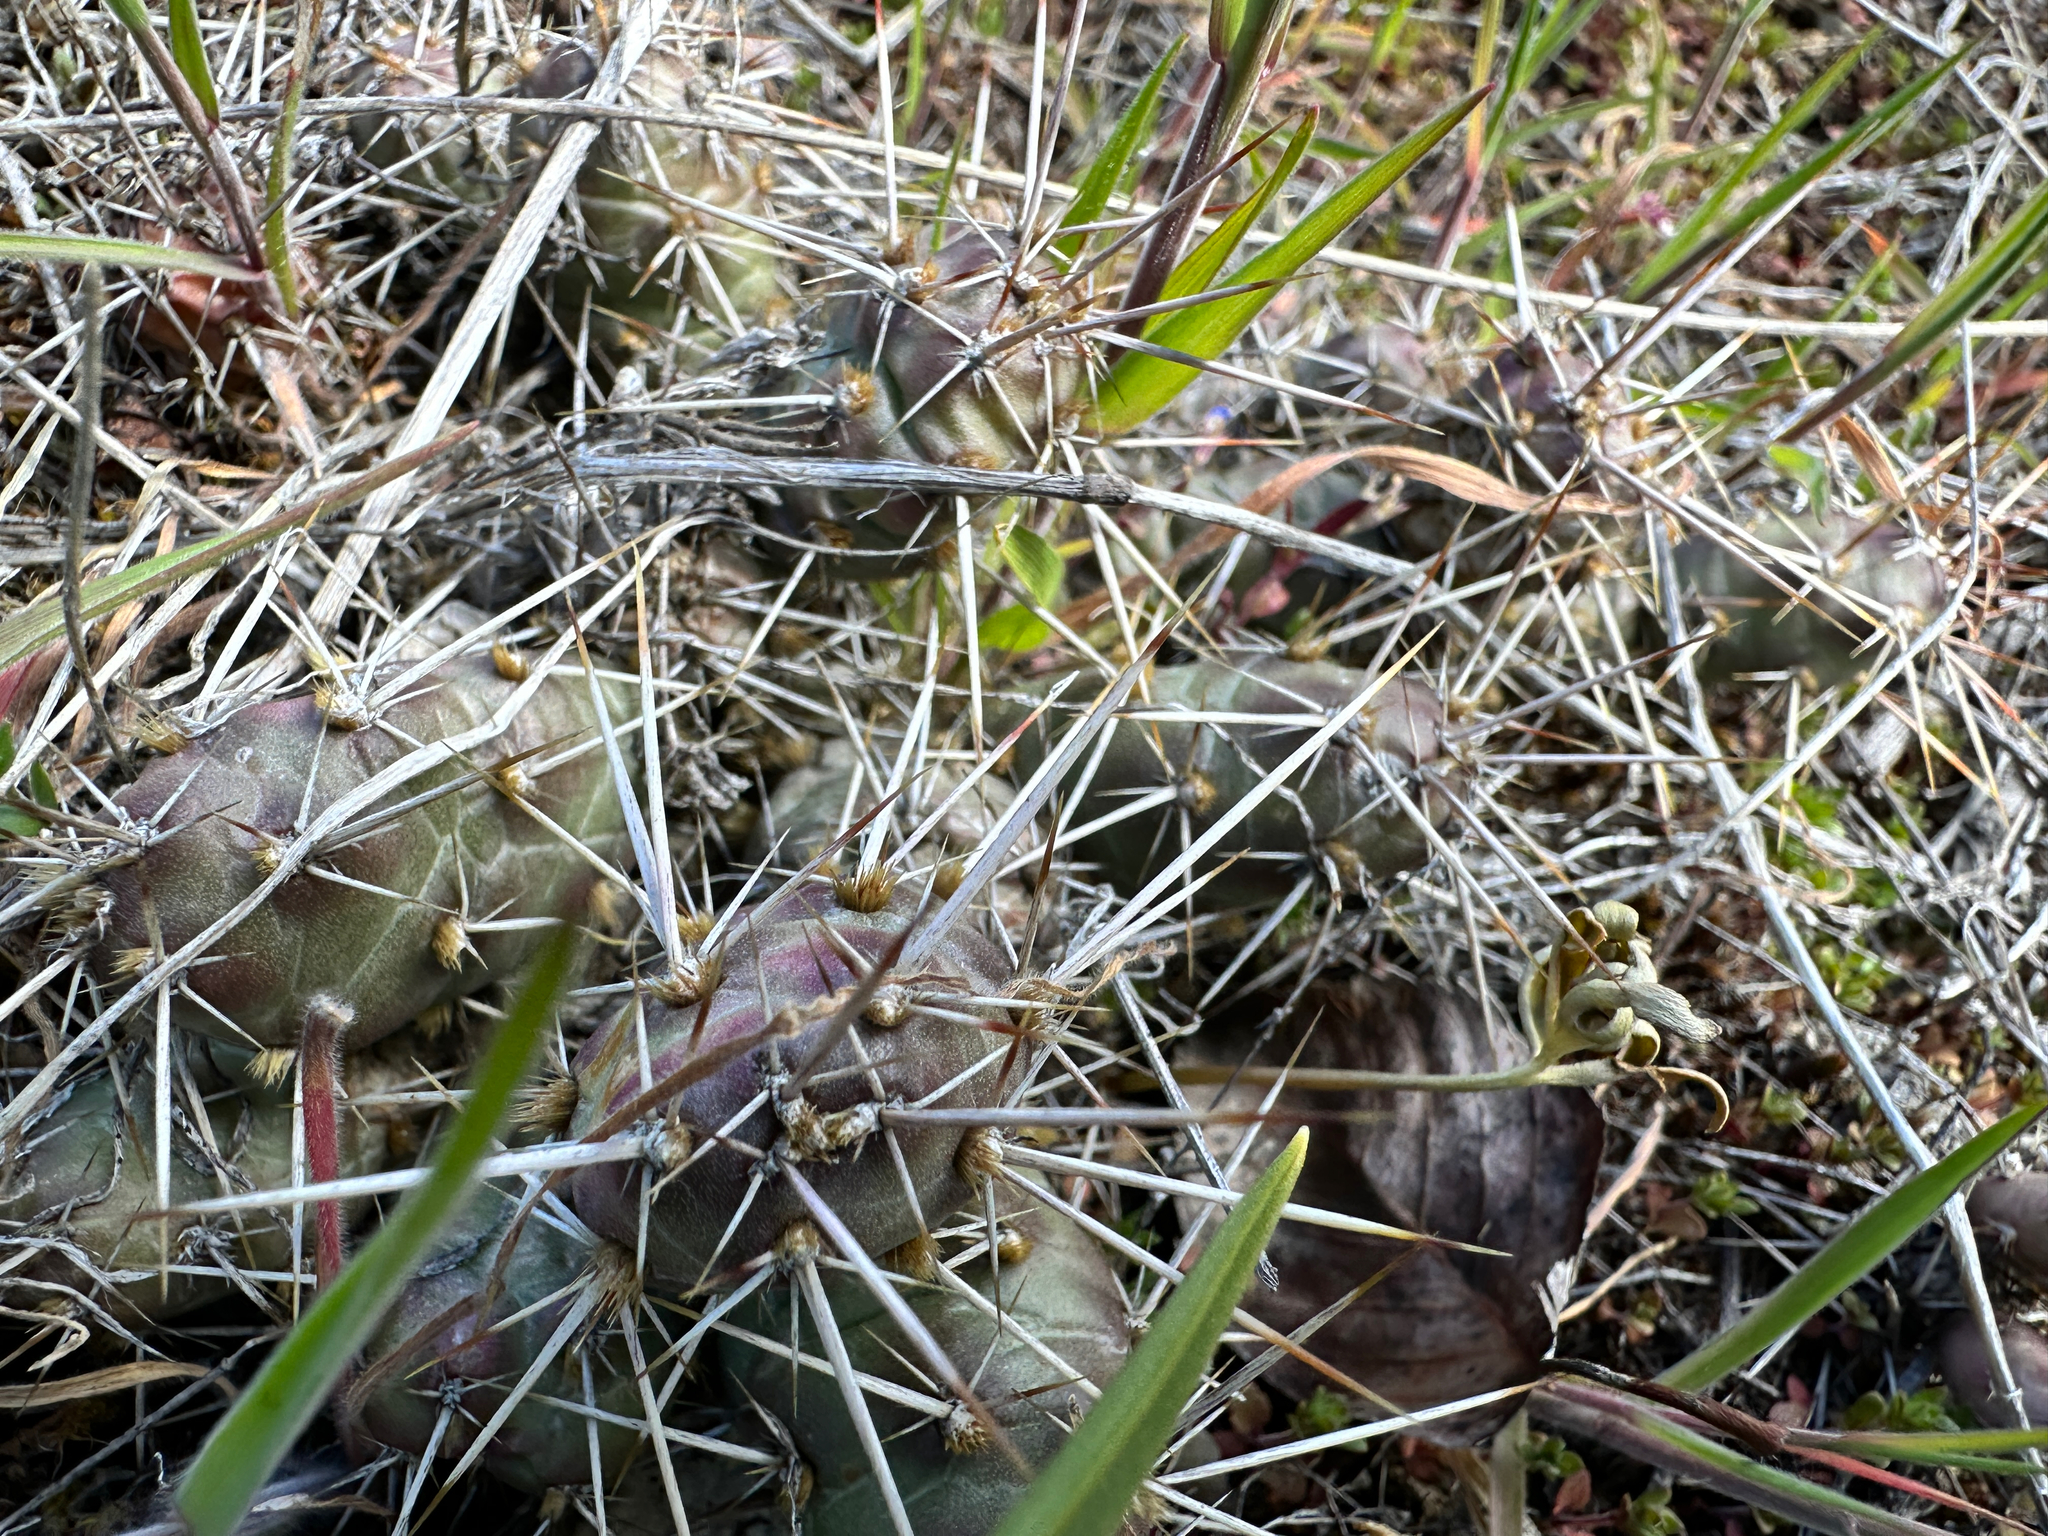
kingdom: Plantae
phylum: Tracheophyta
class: Magnoliopsida
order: Caryophyllales
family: Cactaceae
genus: Opuntia
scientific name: Opuntia fragilis
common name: Brittle cactus
